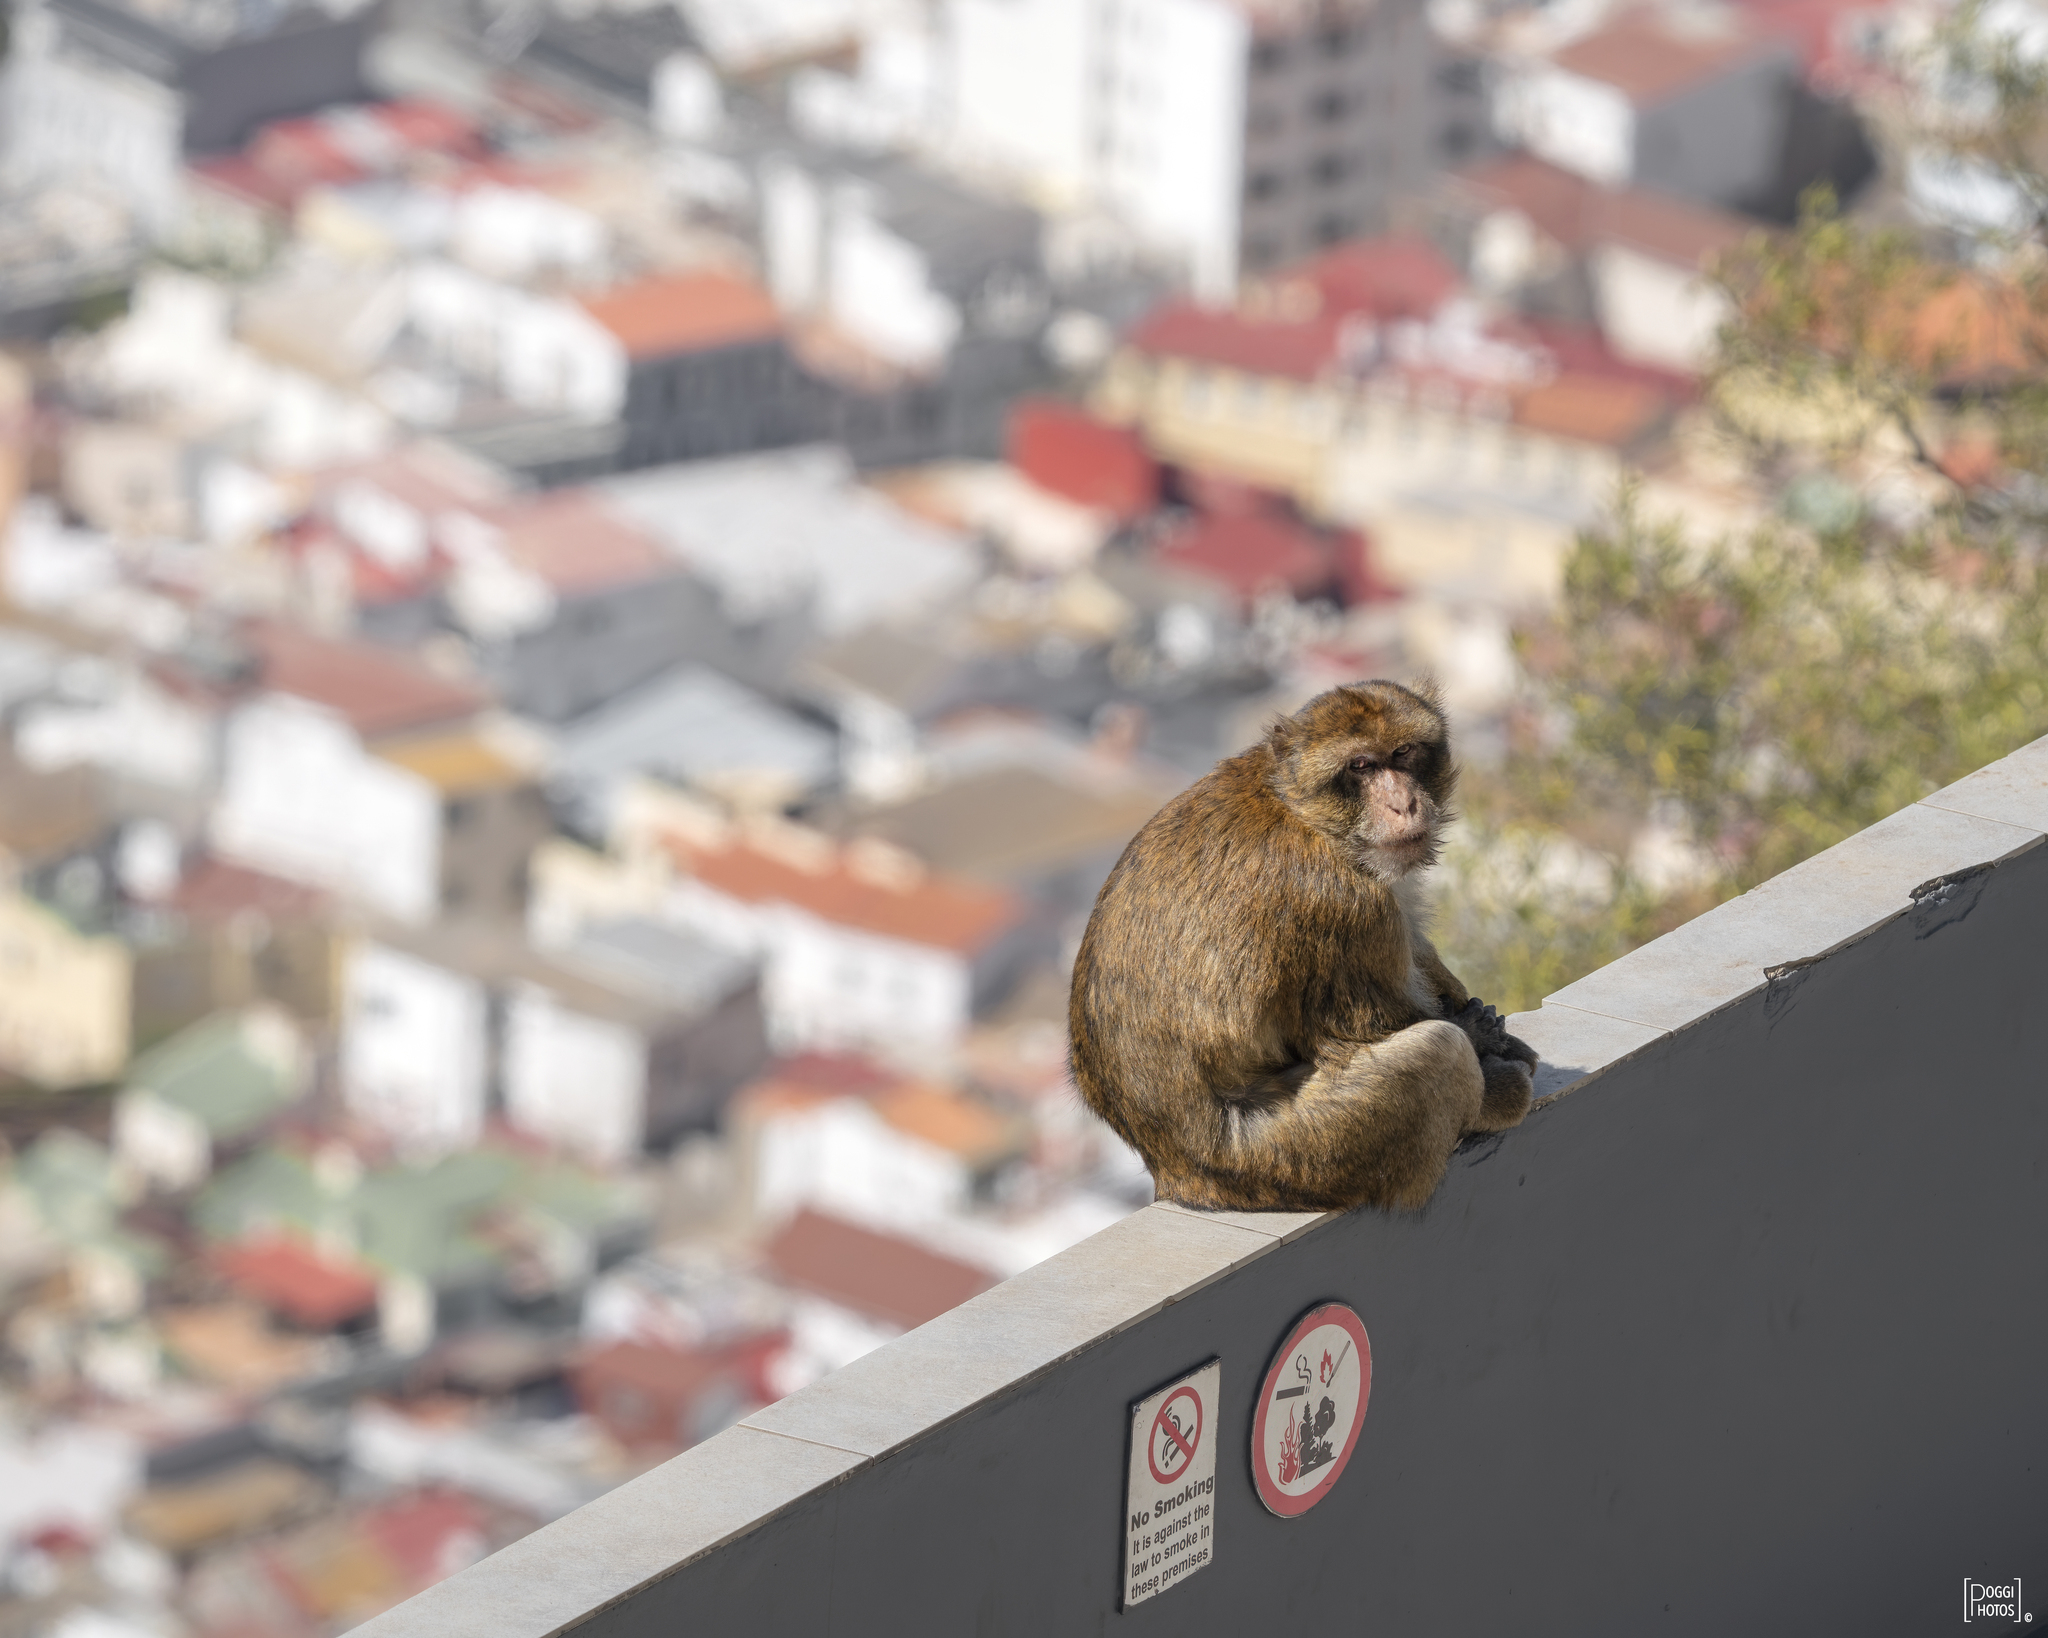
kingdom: Animalia
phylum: Chordata
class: Mammalia
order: Primates
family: Cercopithecidae
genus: Macaca
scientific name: Macaca sylvanus
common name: Barbary macaque
